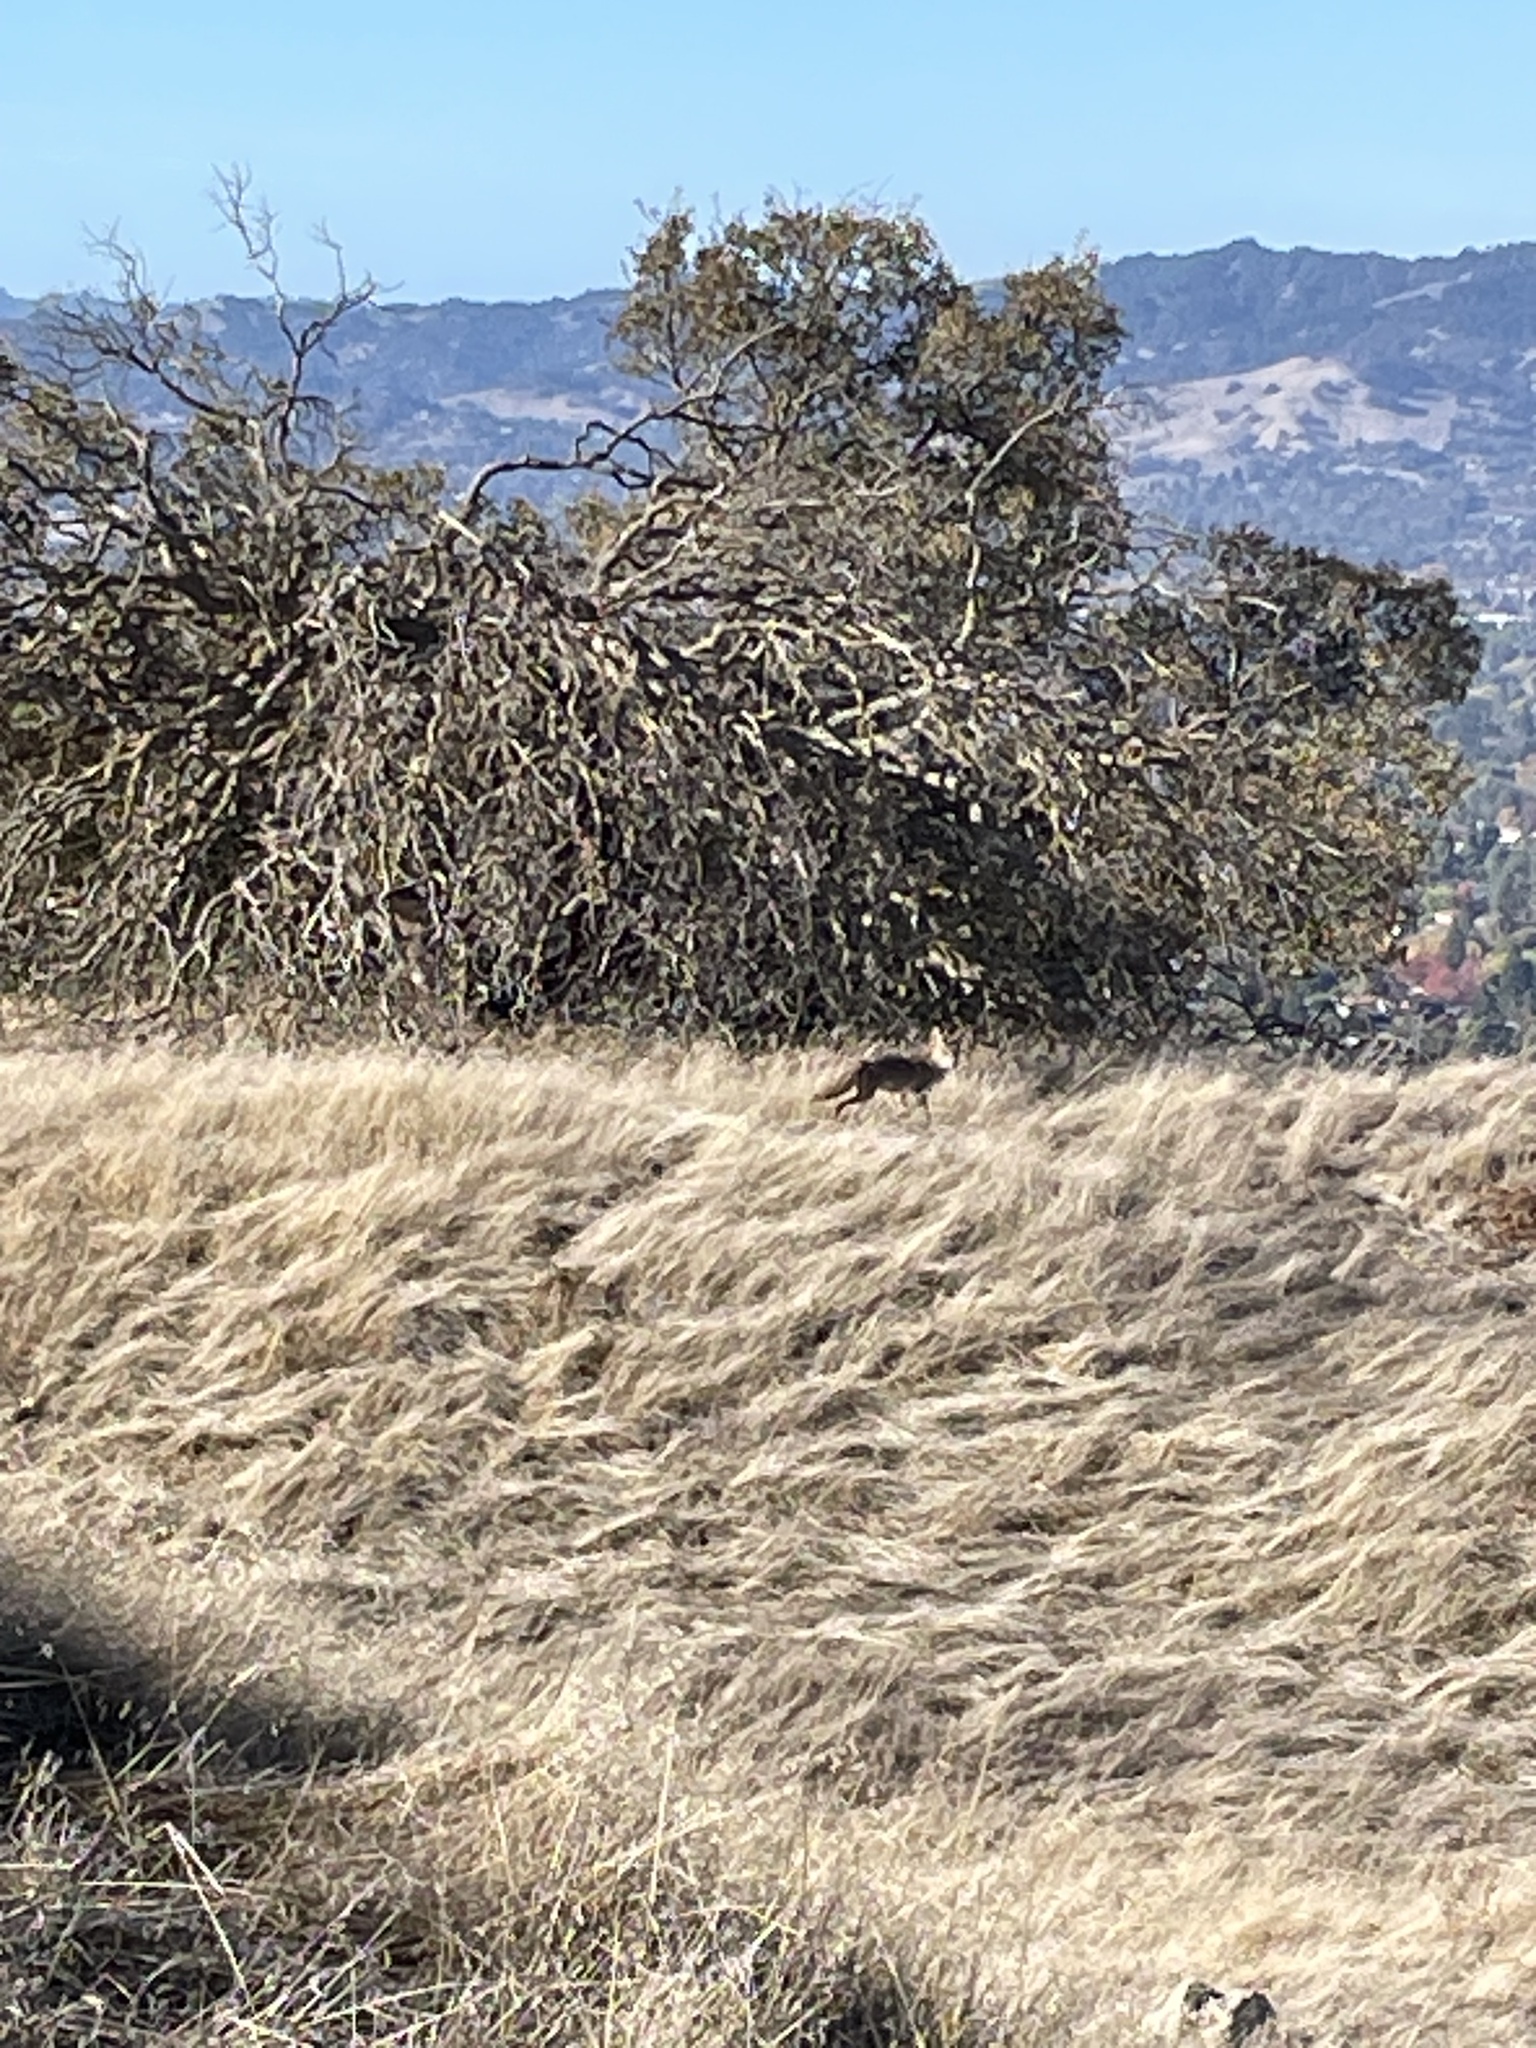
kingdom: Animalia
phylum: Chordata
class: Mammalia
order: Carnivora
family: Canidae
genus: Canis
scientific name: Canis latrans
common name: Coyote
